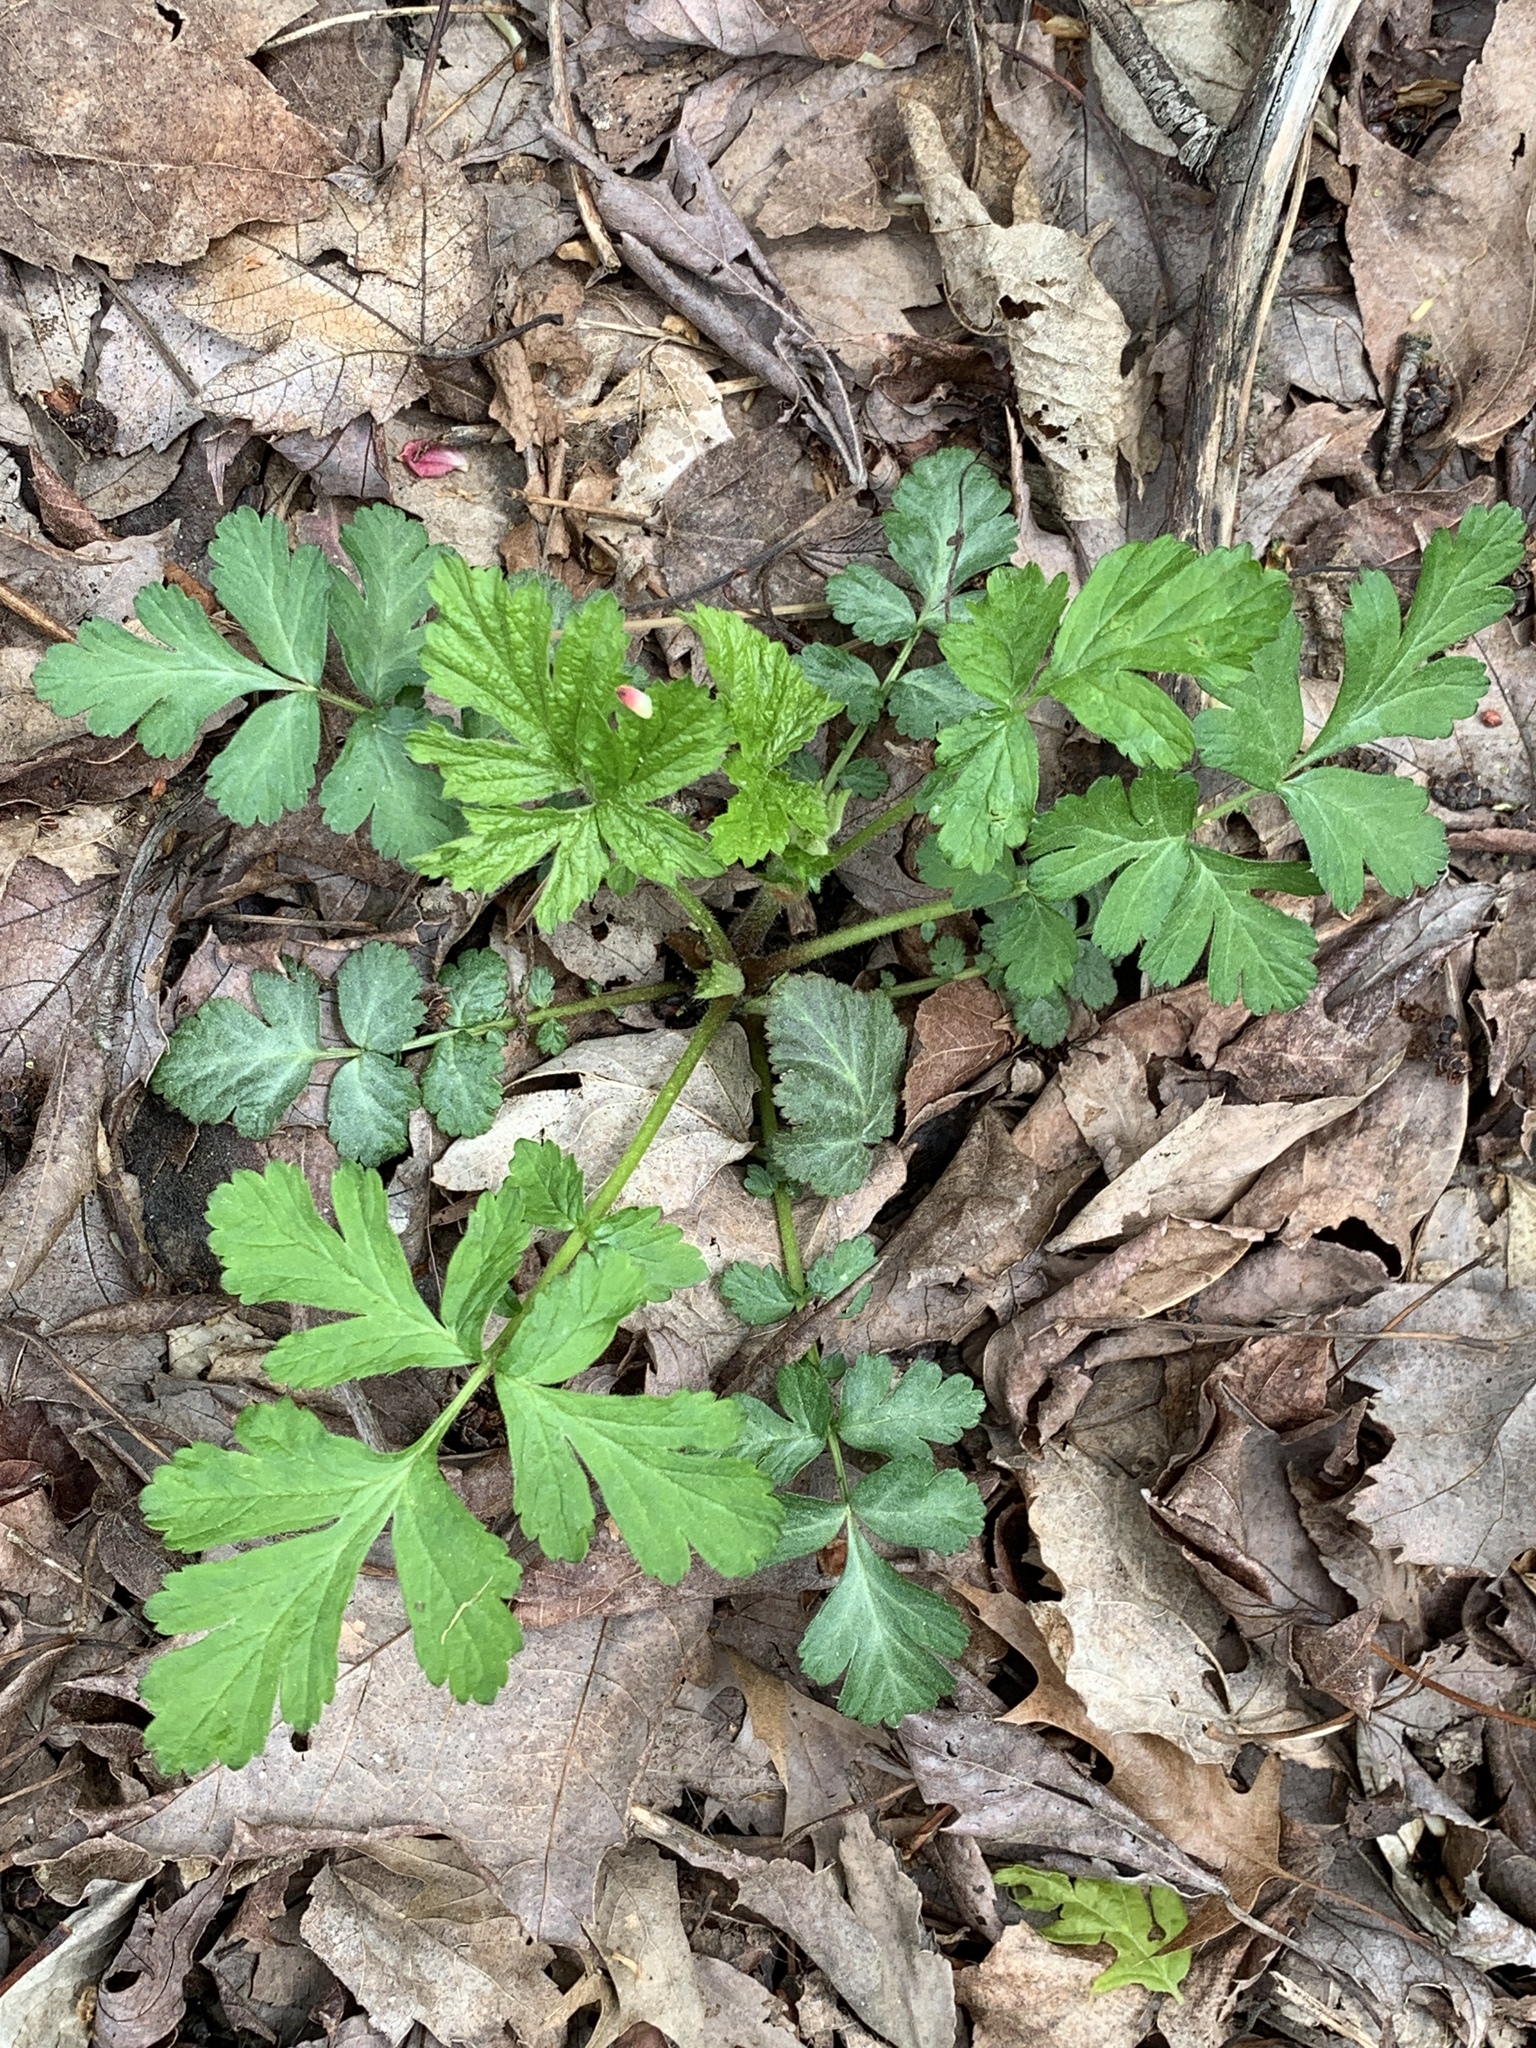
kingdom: Plantae
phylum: Tracheophyta
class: Magnoliopsida
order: Rosales
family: Rosaceae
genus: Geum
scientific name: Geum canadense
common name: White avens
